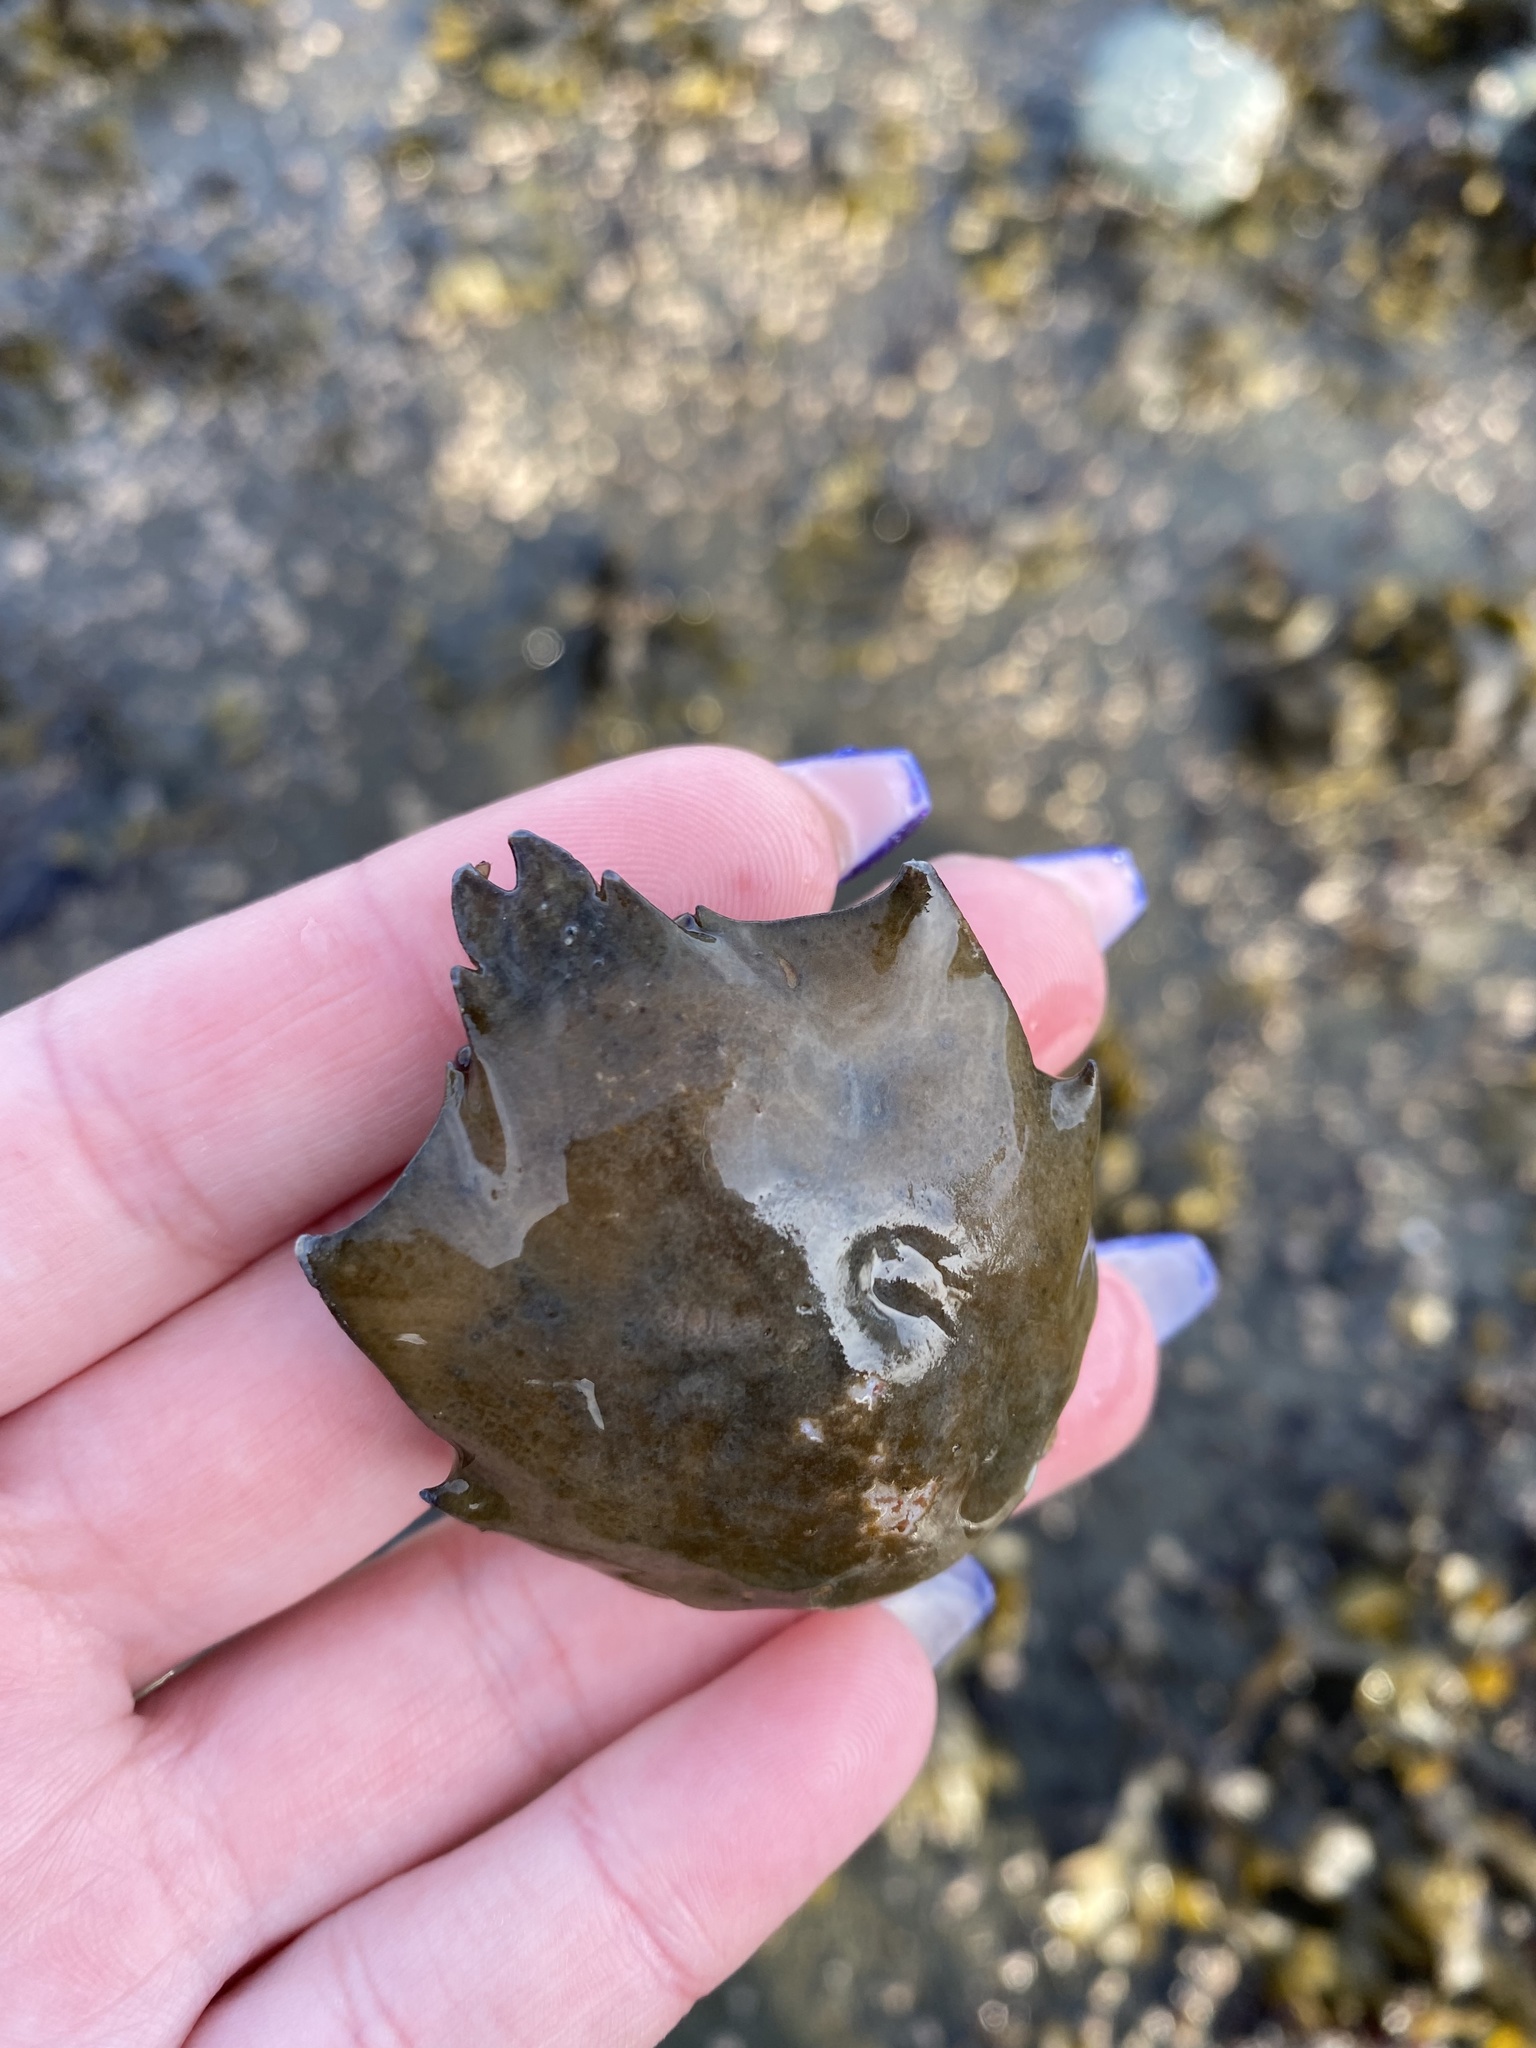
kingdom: Animalia
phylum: Arthropoda
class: Malacostraca
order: Decapoda
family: Epialtidae
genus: Pugettia
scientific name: Pugettia producta
